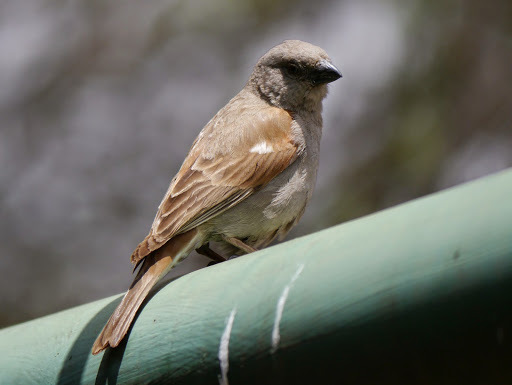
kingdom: Animalia
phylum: Chordata
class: Aves
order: Passeriformes
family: Passeridae
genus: Passer
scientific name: Passer gongonensis
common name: Parrot-billed sparrow
